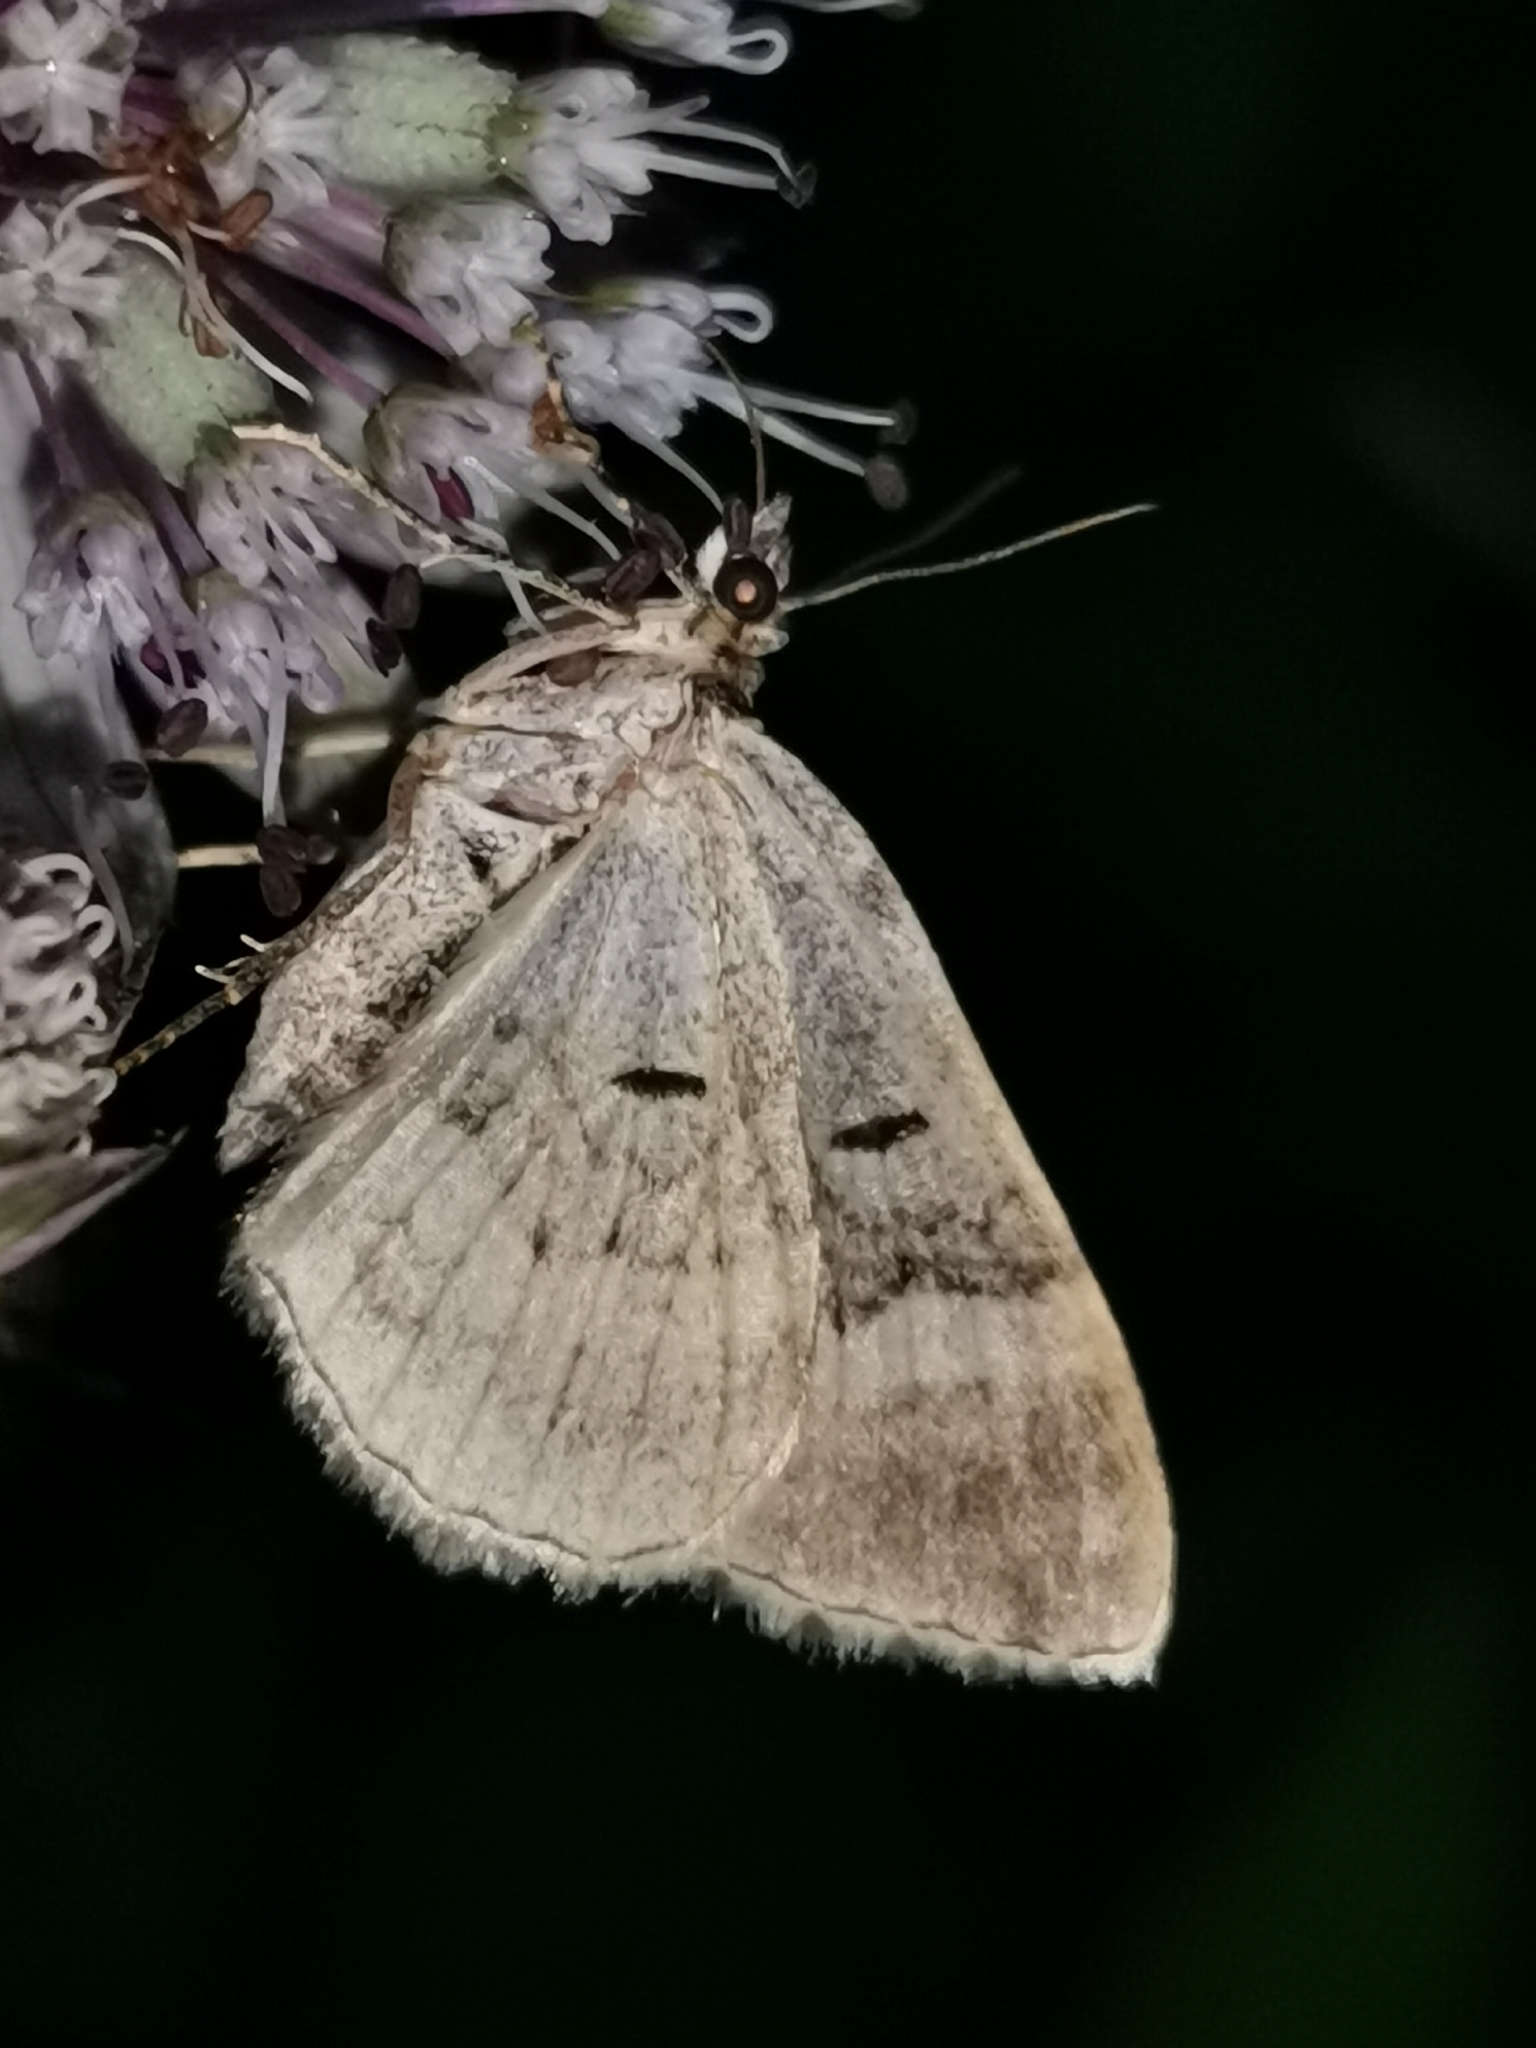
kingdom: Animalia
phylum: Arthropoda
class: Insecta
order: Lepidoptera
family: Geometridae
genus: Xanthorhoe
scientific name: Xanthorhoe quadrifasiata
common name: Large twin-spot carpet
